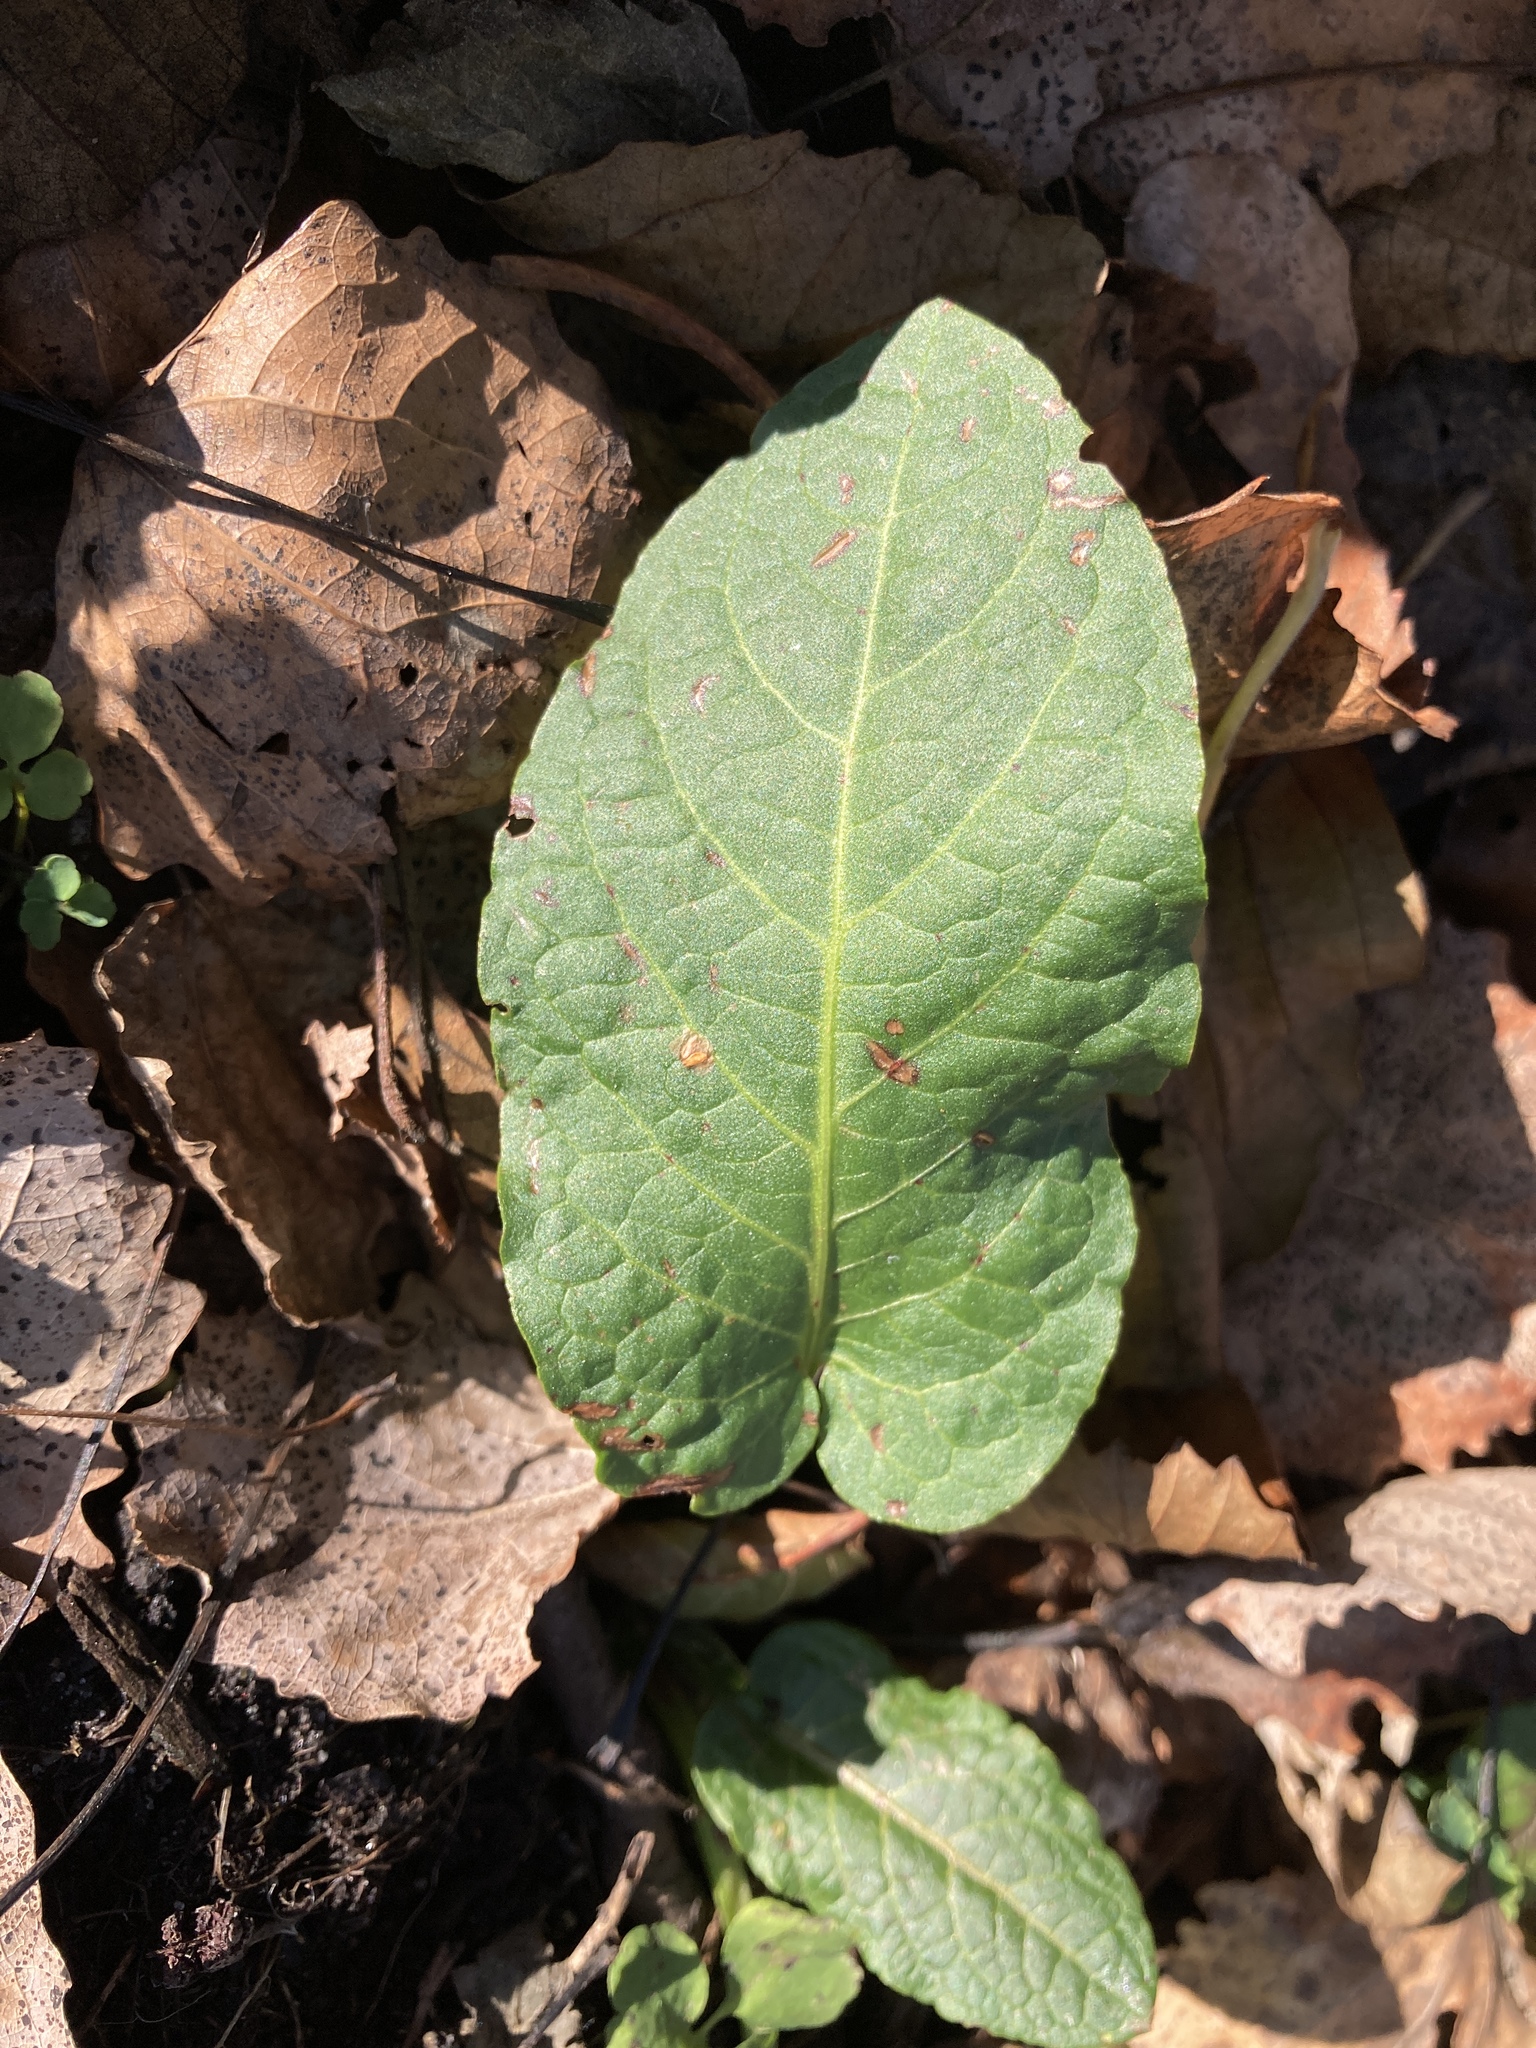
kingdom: Plantae
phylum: Tracheophyta
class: Magnoliopsida
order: Caryophyllales
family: Polygonaceae
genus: Rumex
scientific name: Rumex obtusifolius
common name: Bitter dock
